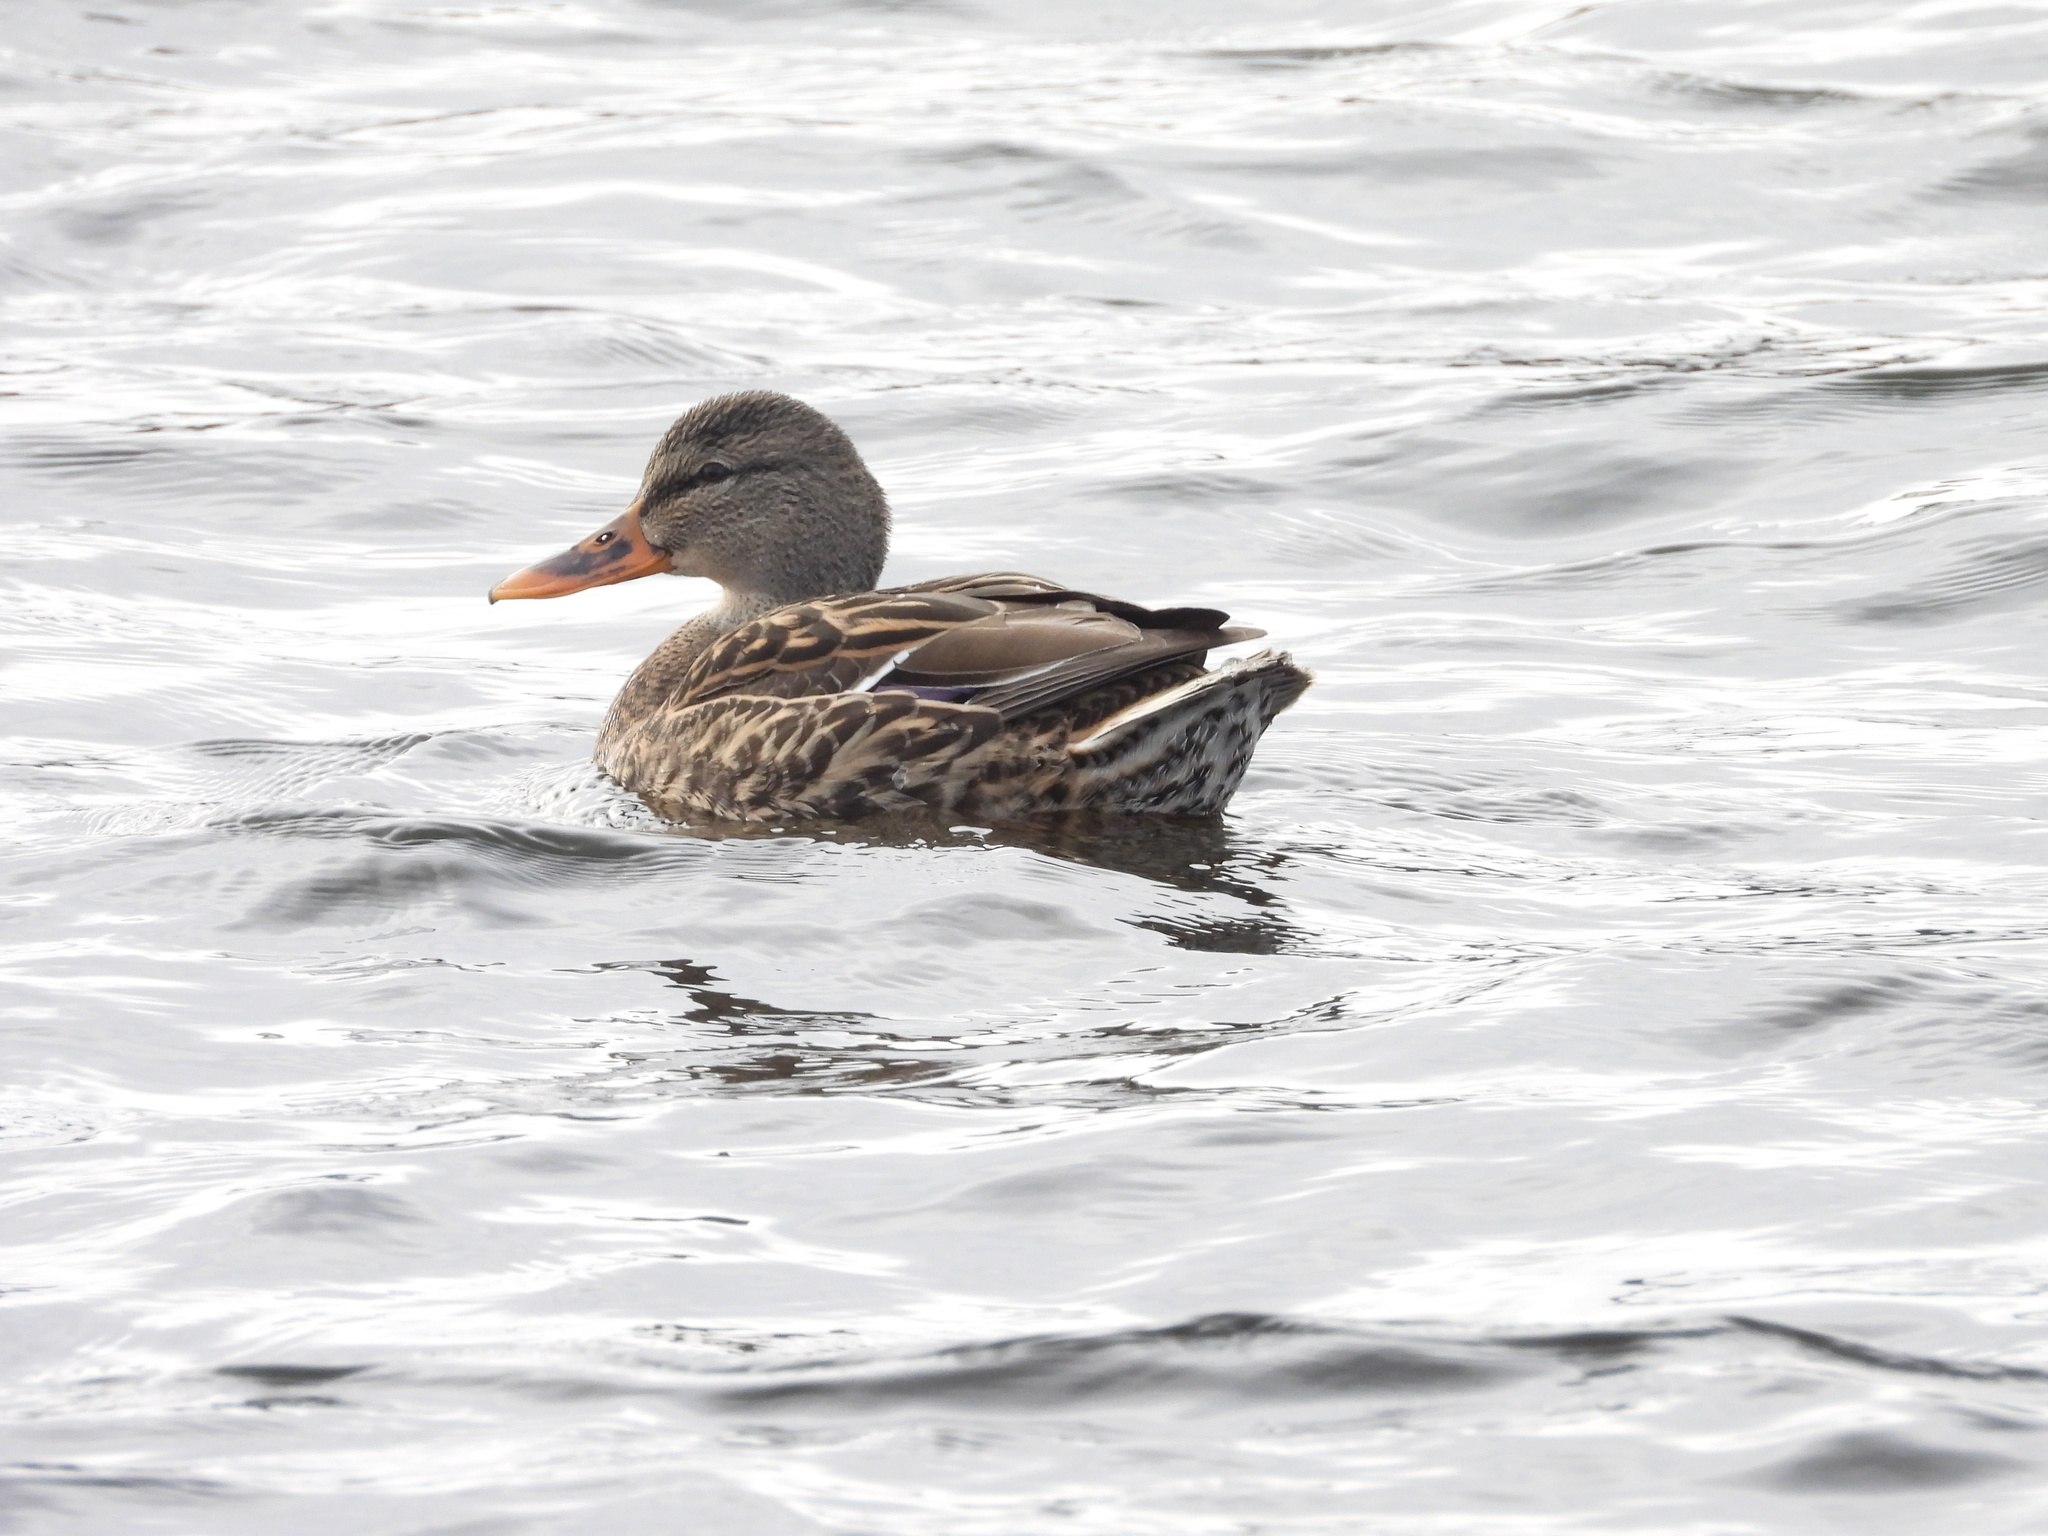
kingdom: Animalia
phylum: Chordata
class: Aves
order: Anseriformes
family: Anatidae
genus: Anas
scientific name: Anas platyrhynchos
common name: Mallard
